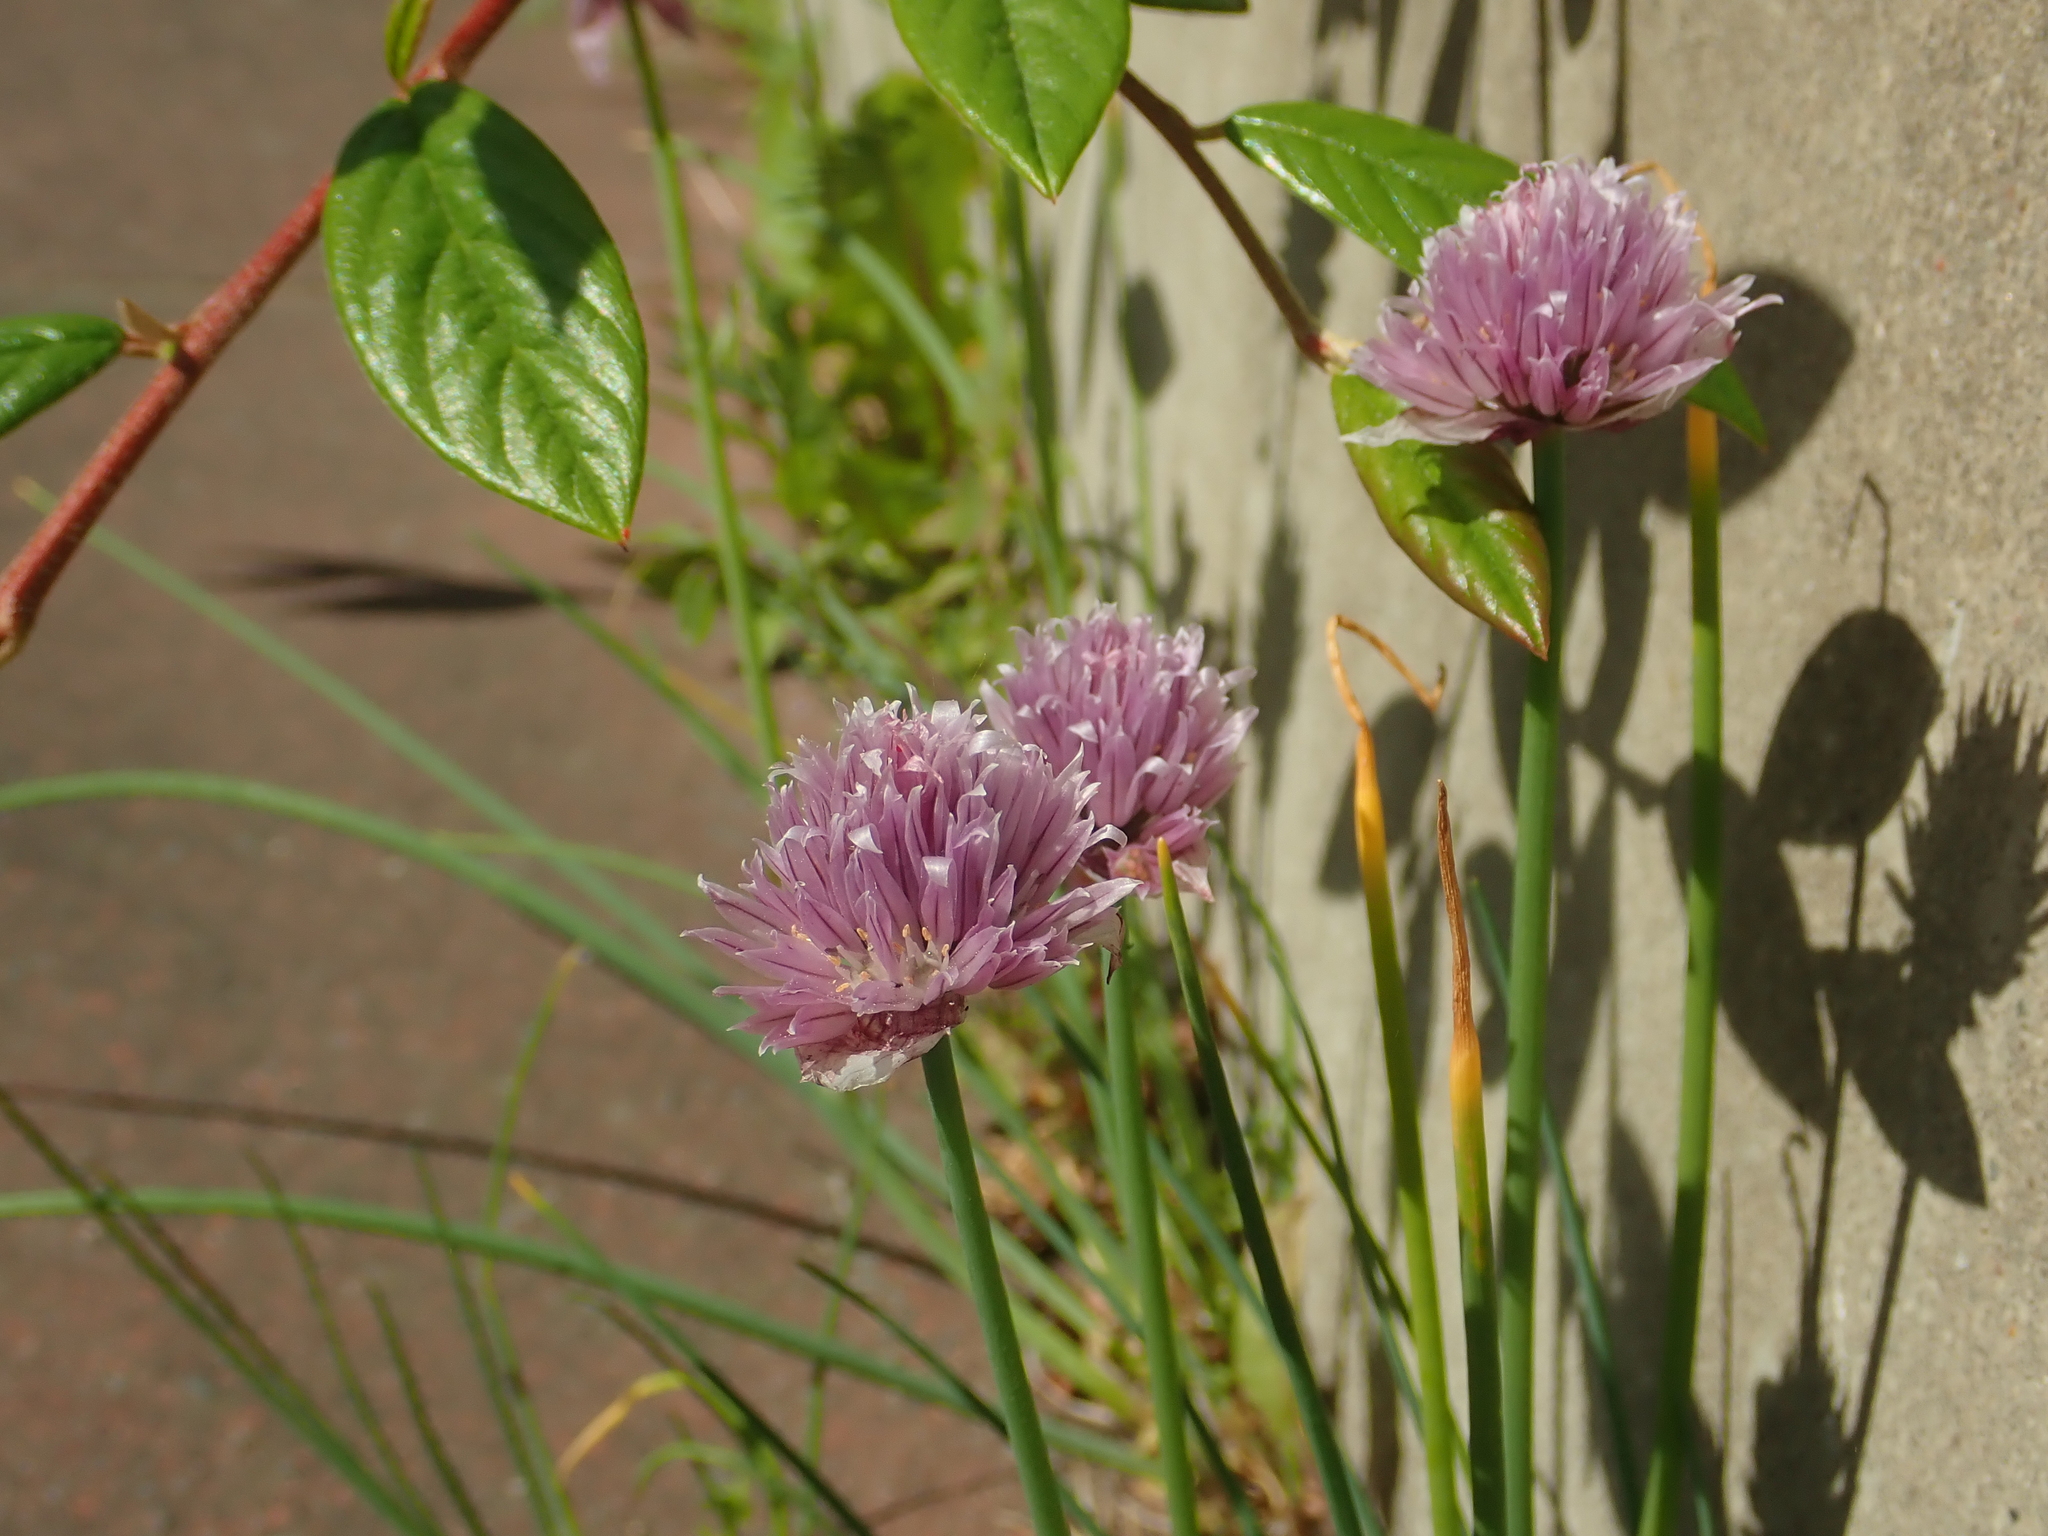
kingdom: Plantae
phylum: Tracheophyta
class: Liliopsida
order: Asparagales
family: Amaryllidaceae
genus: Allium
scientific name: Allium schoenoprasum
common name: Chives
